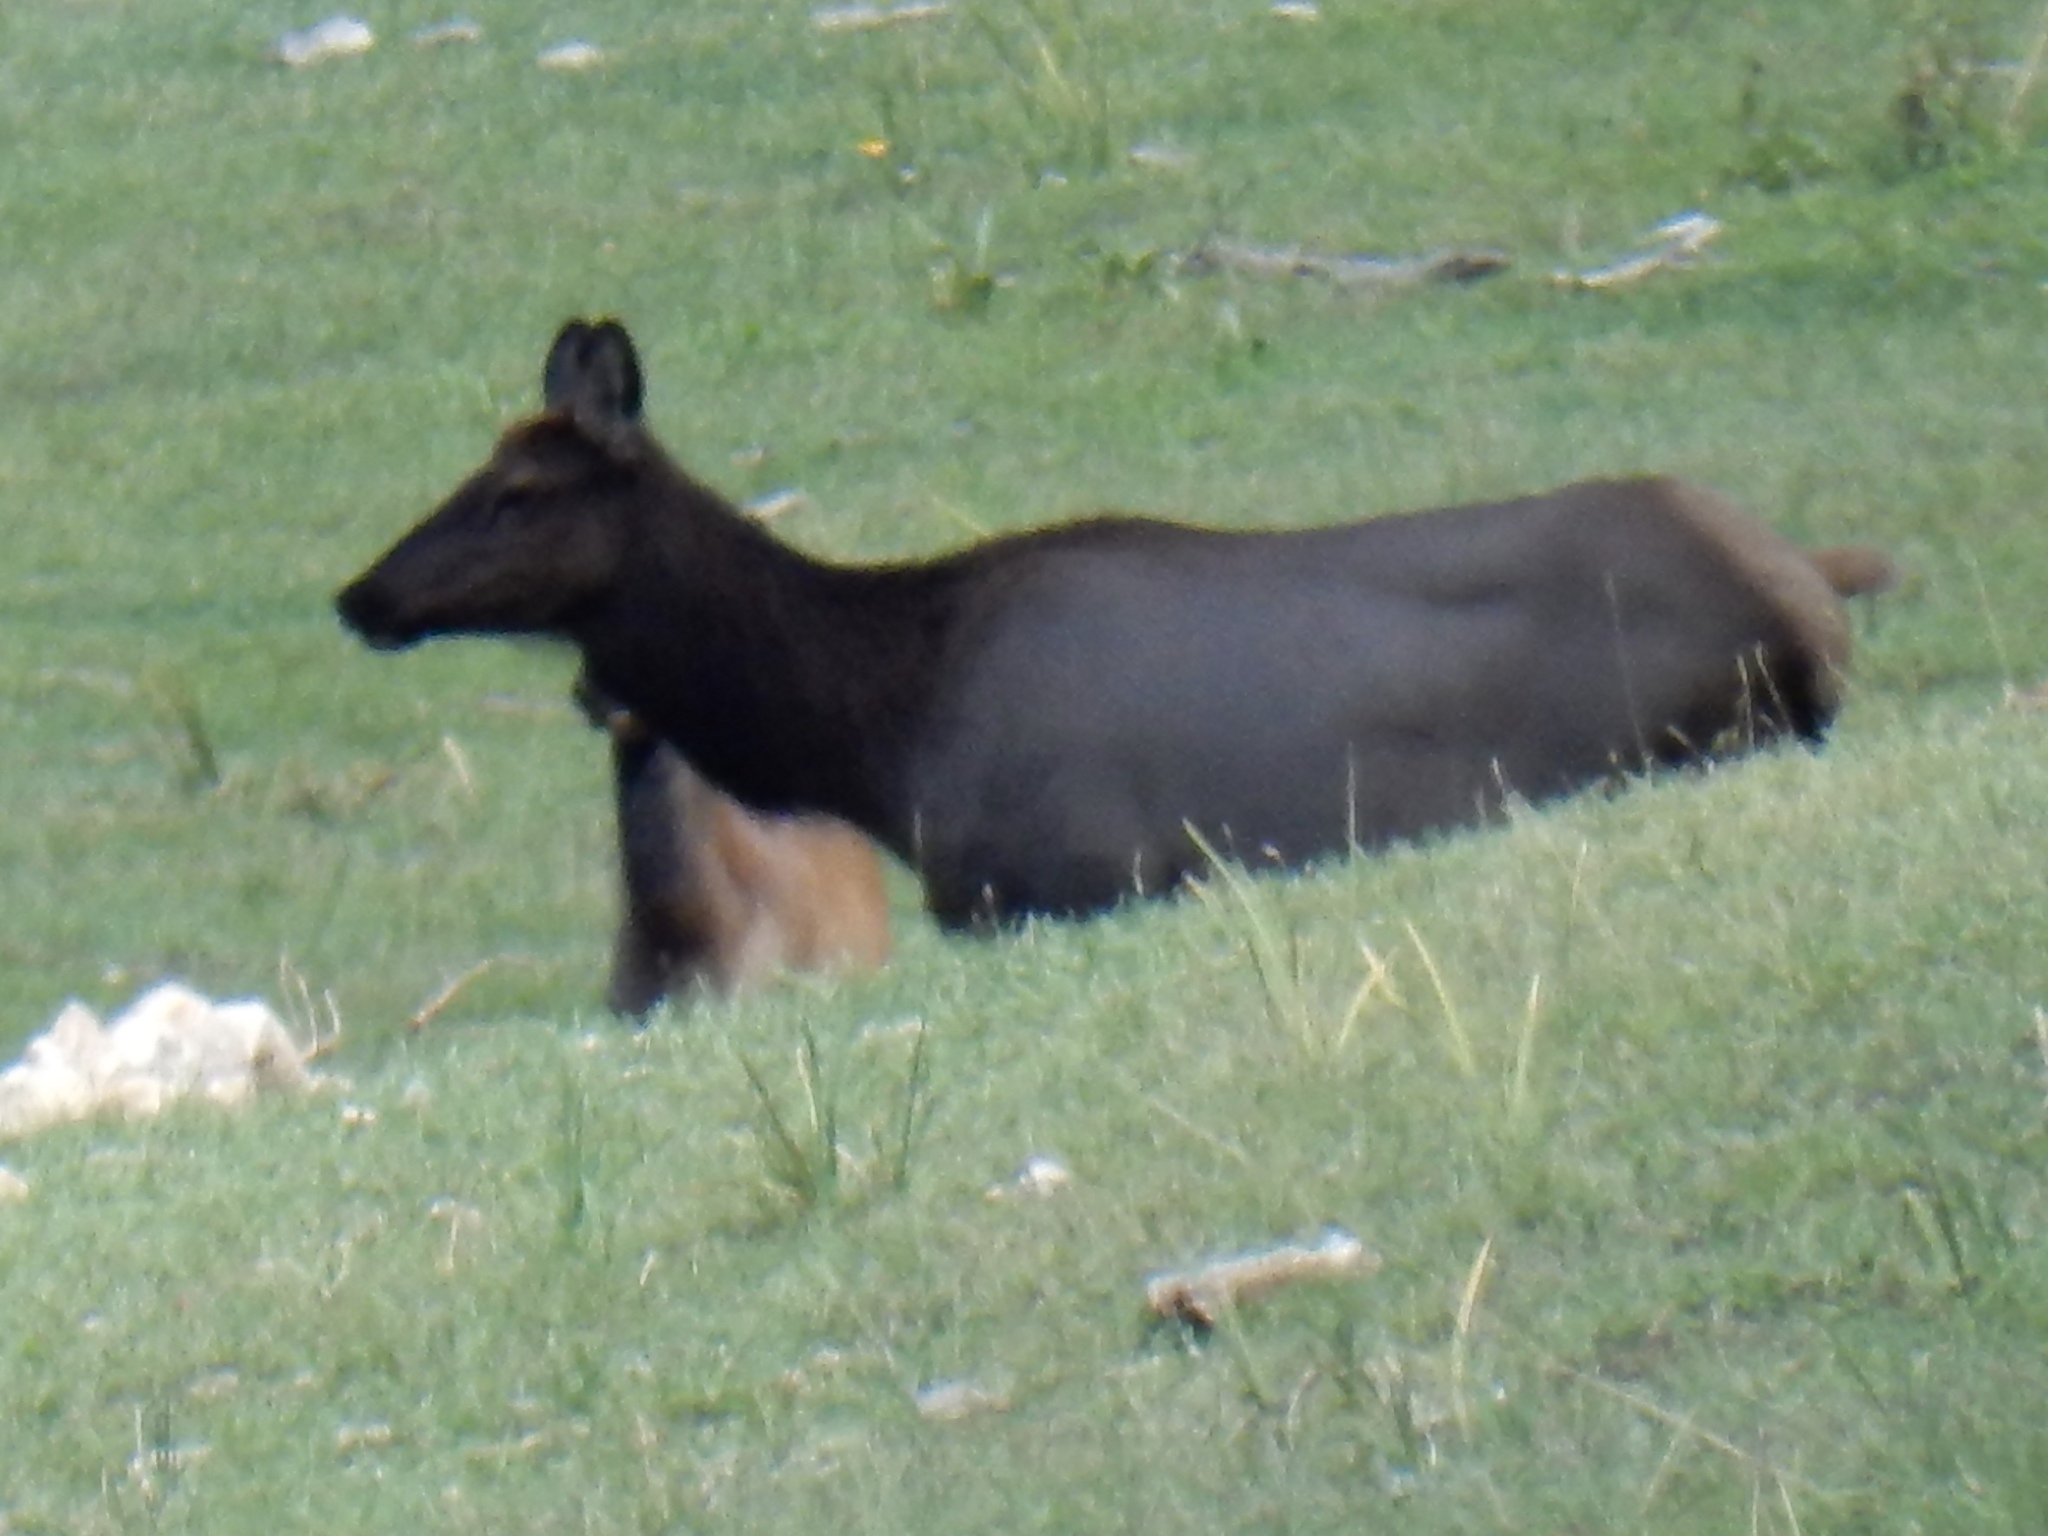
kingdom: Animalia
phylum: Chordata
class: Mammalia
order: Artiodactyla
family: Cervidae
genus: Cervus
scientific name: Cervus elaphus
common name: Red deer
